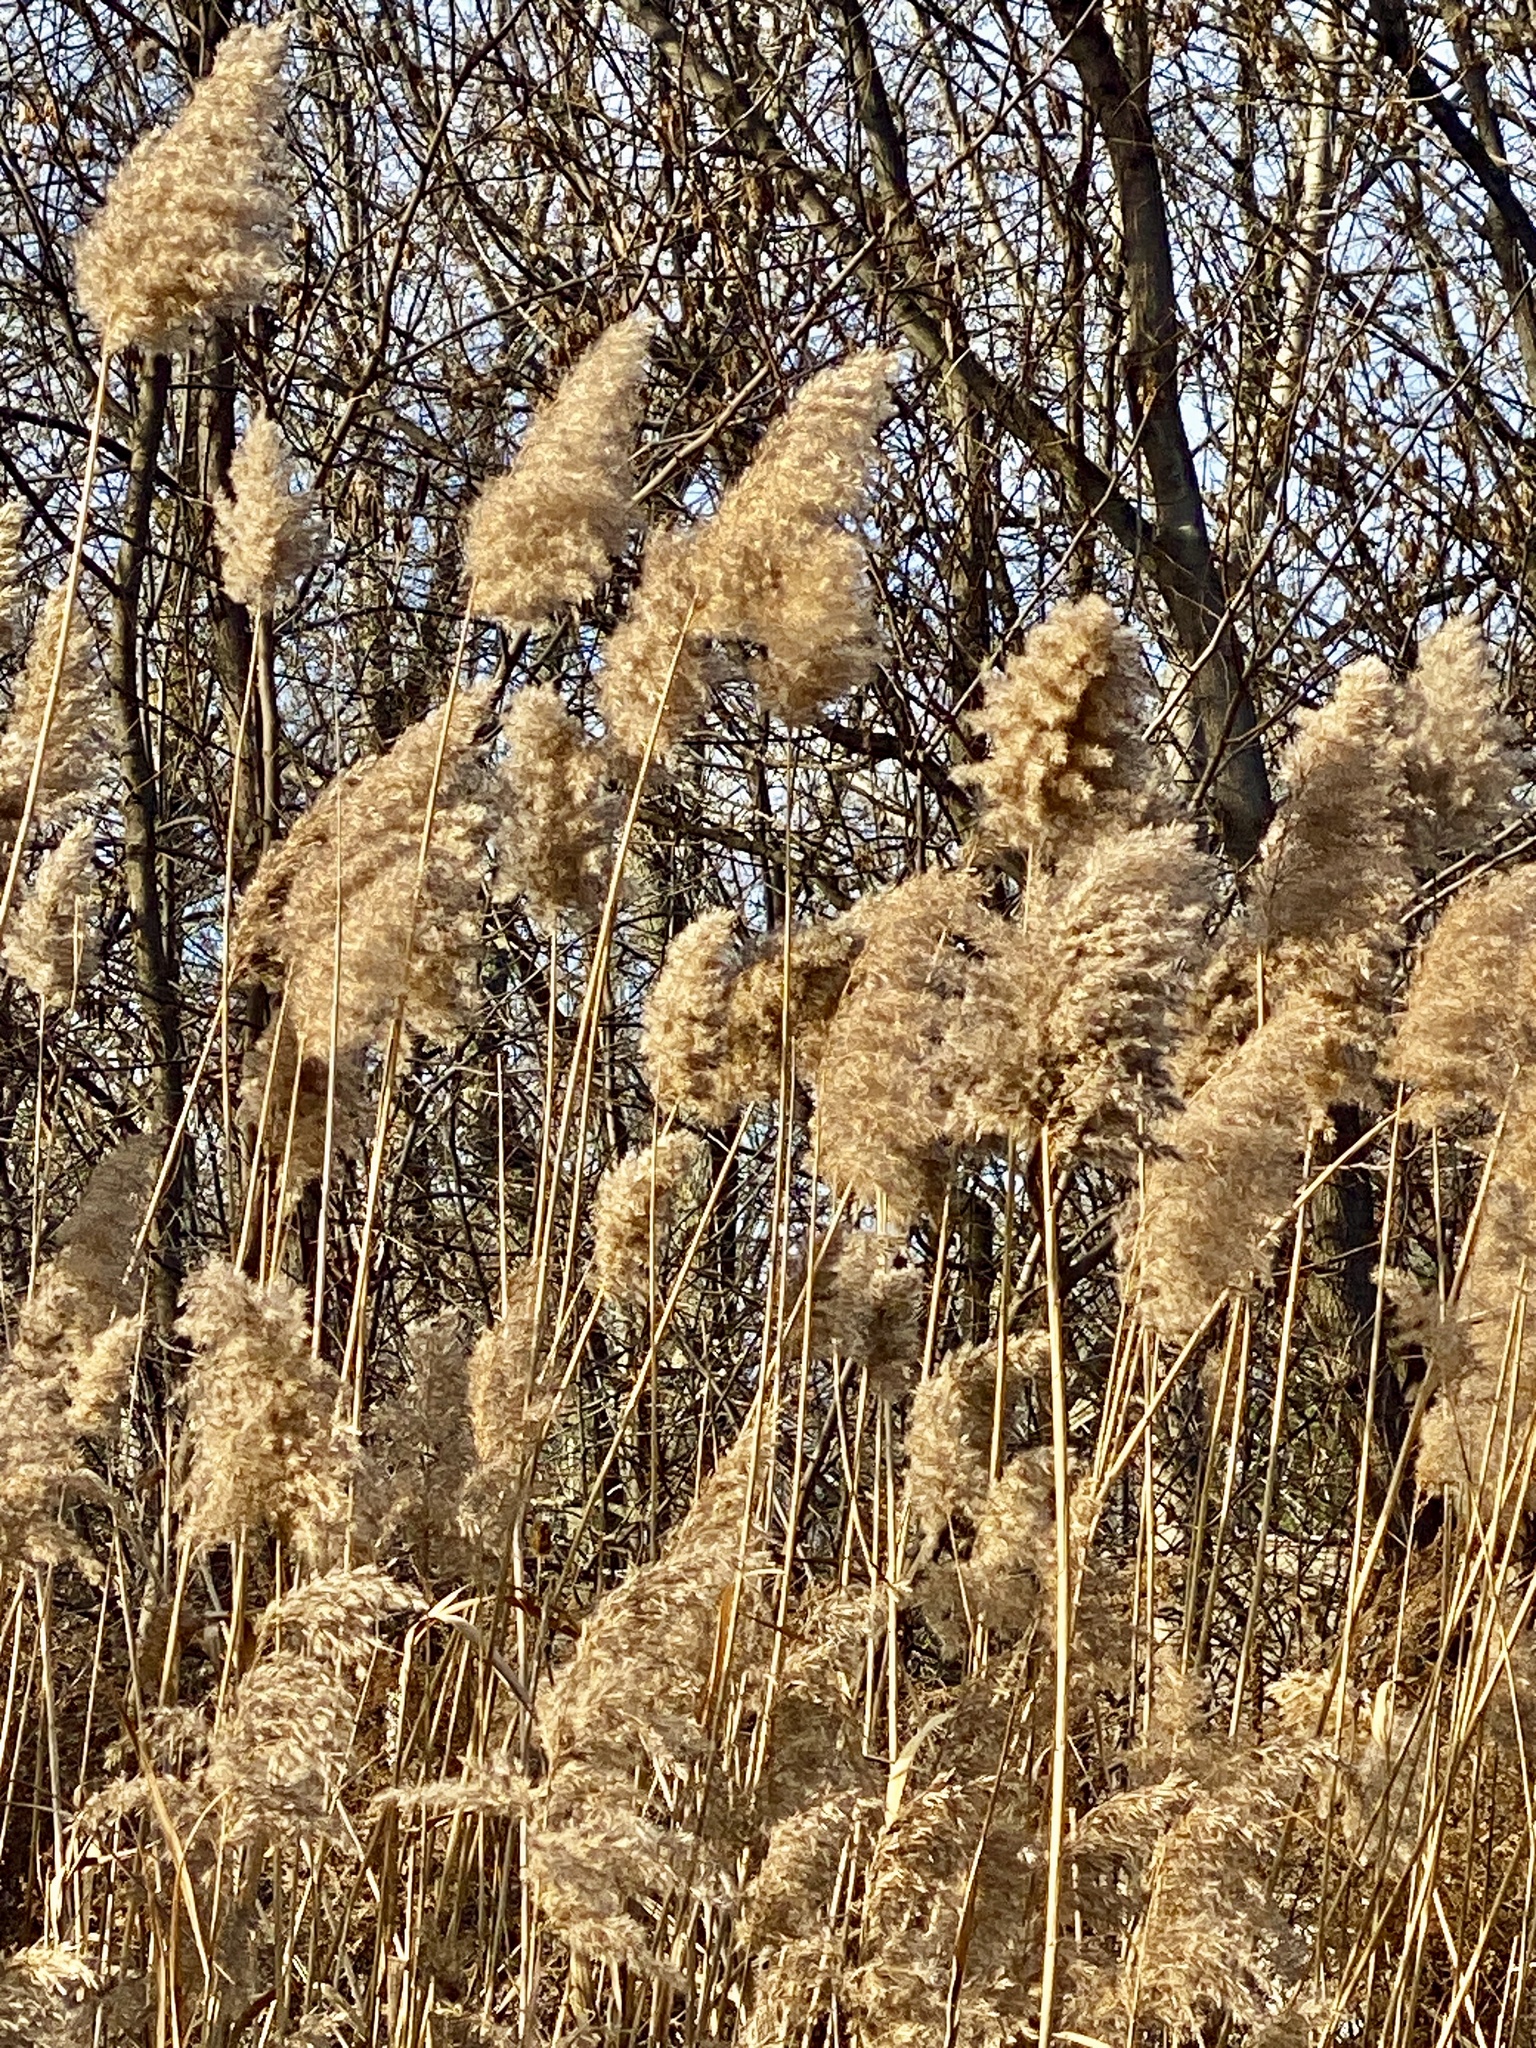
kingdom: Plantae
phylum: Tracheophyta
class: Liliopsida
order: Poales
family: Poaceae
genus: Phragmites
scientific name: Phragmites australis
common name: Common reed
